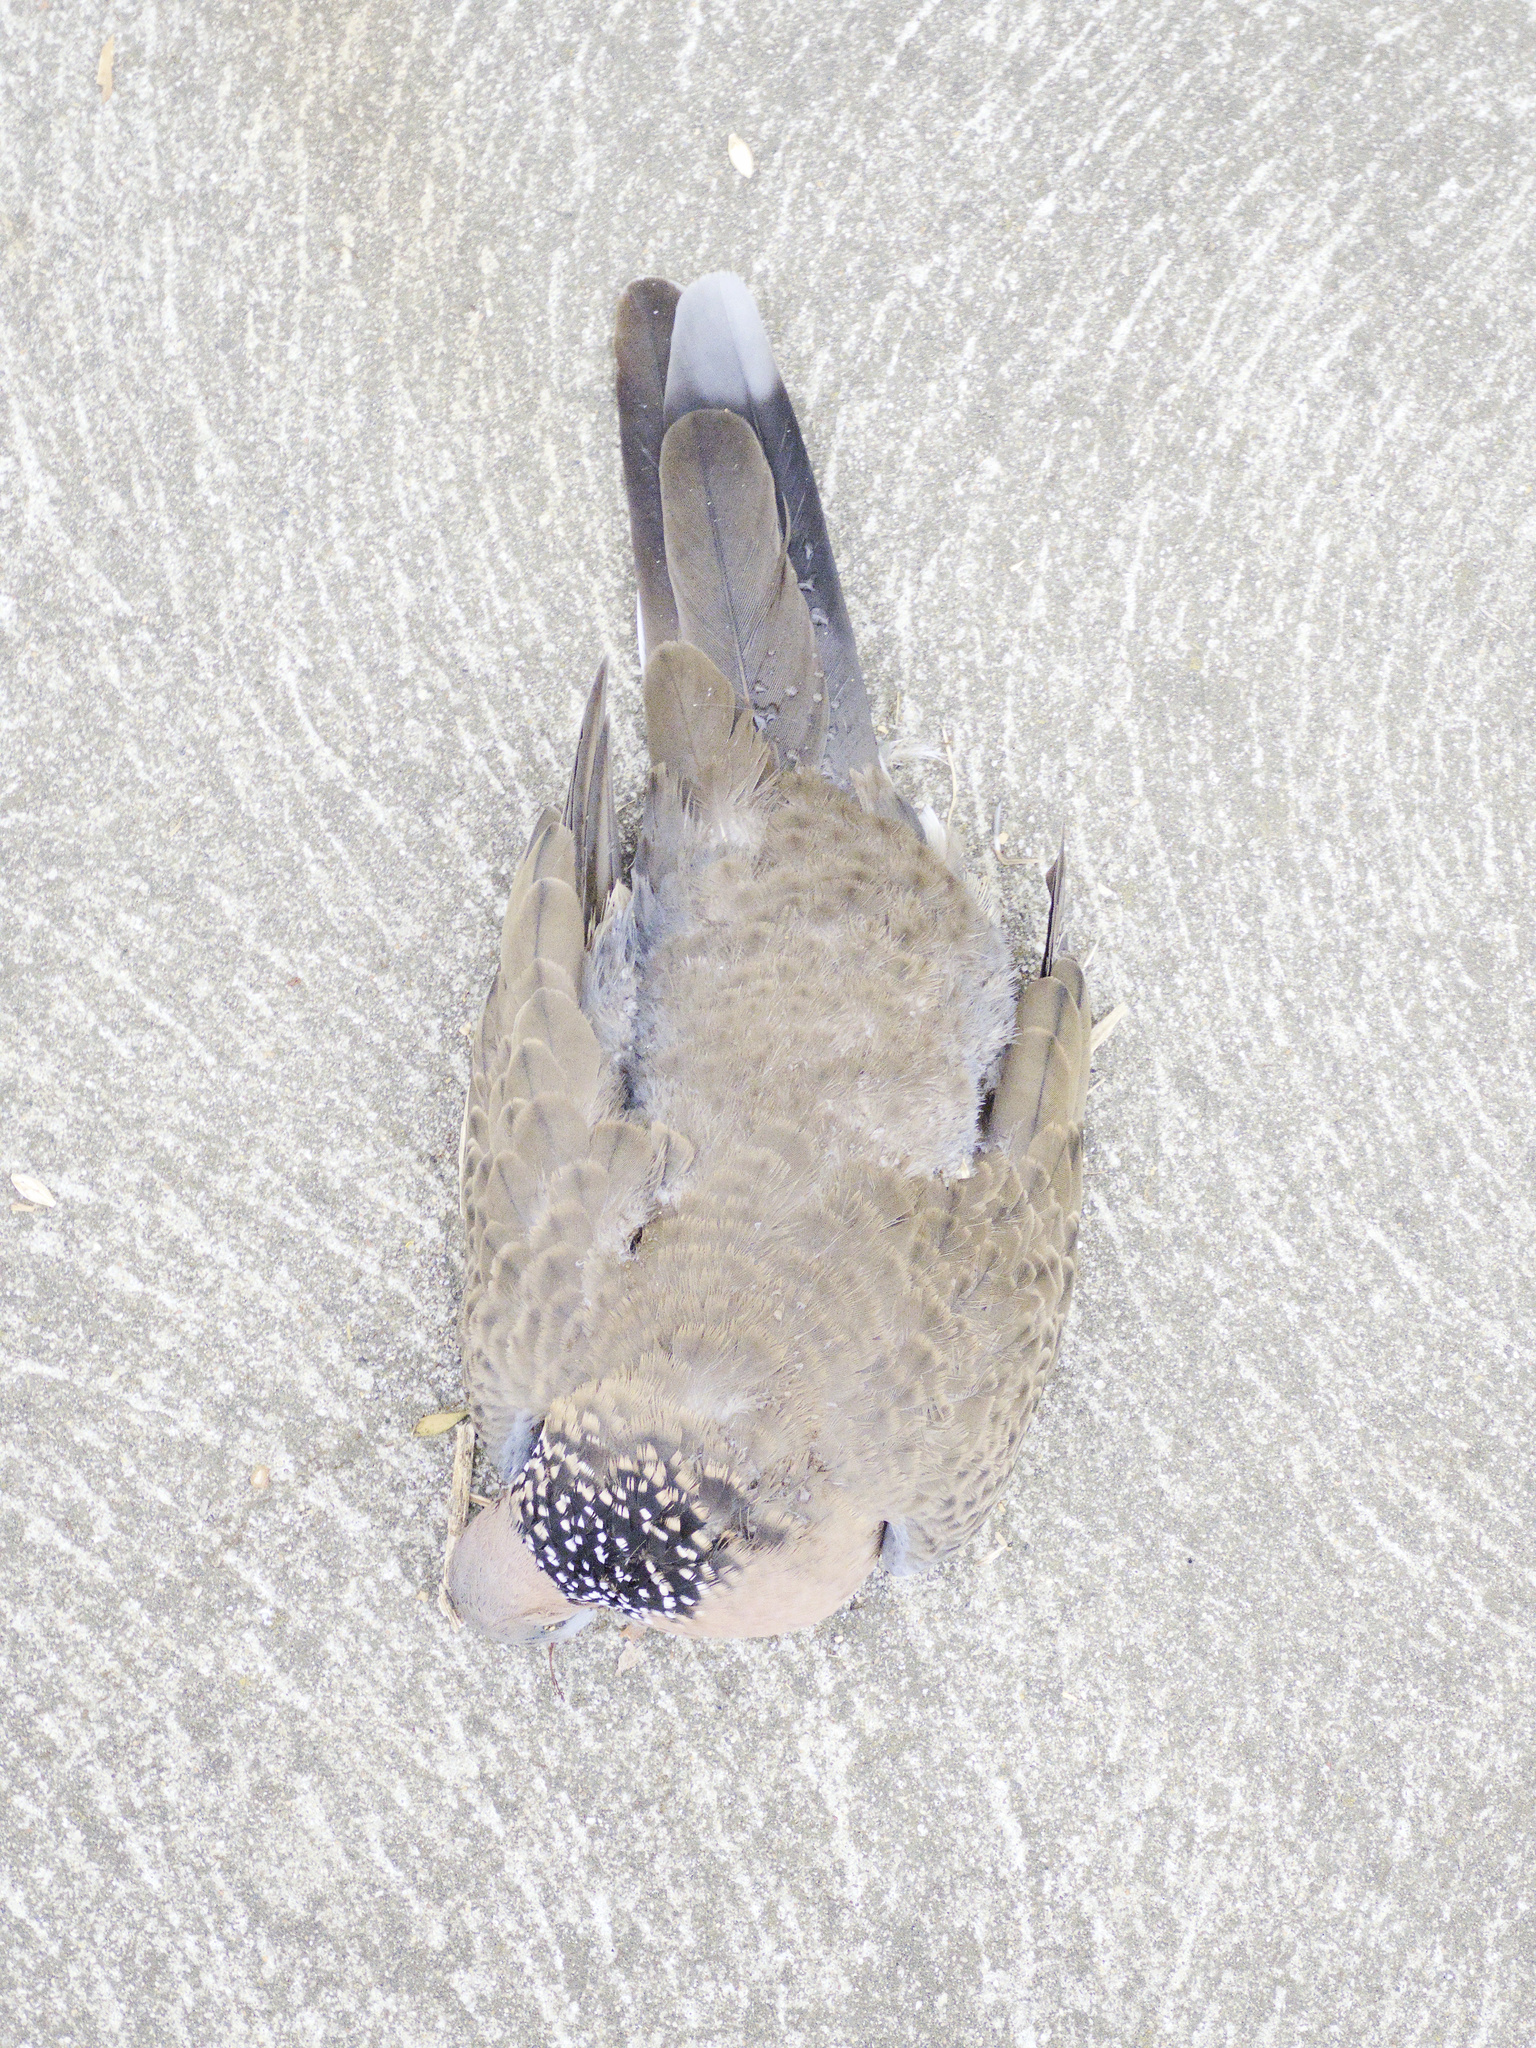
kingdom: Animalia
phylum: Chordata
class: Aves
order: Columbiformes
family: Columbidae
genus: Spilopelia
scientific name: Spilopelia chinensis
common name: Spotted dove
